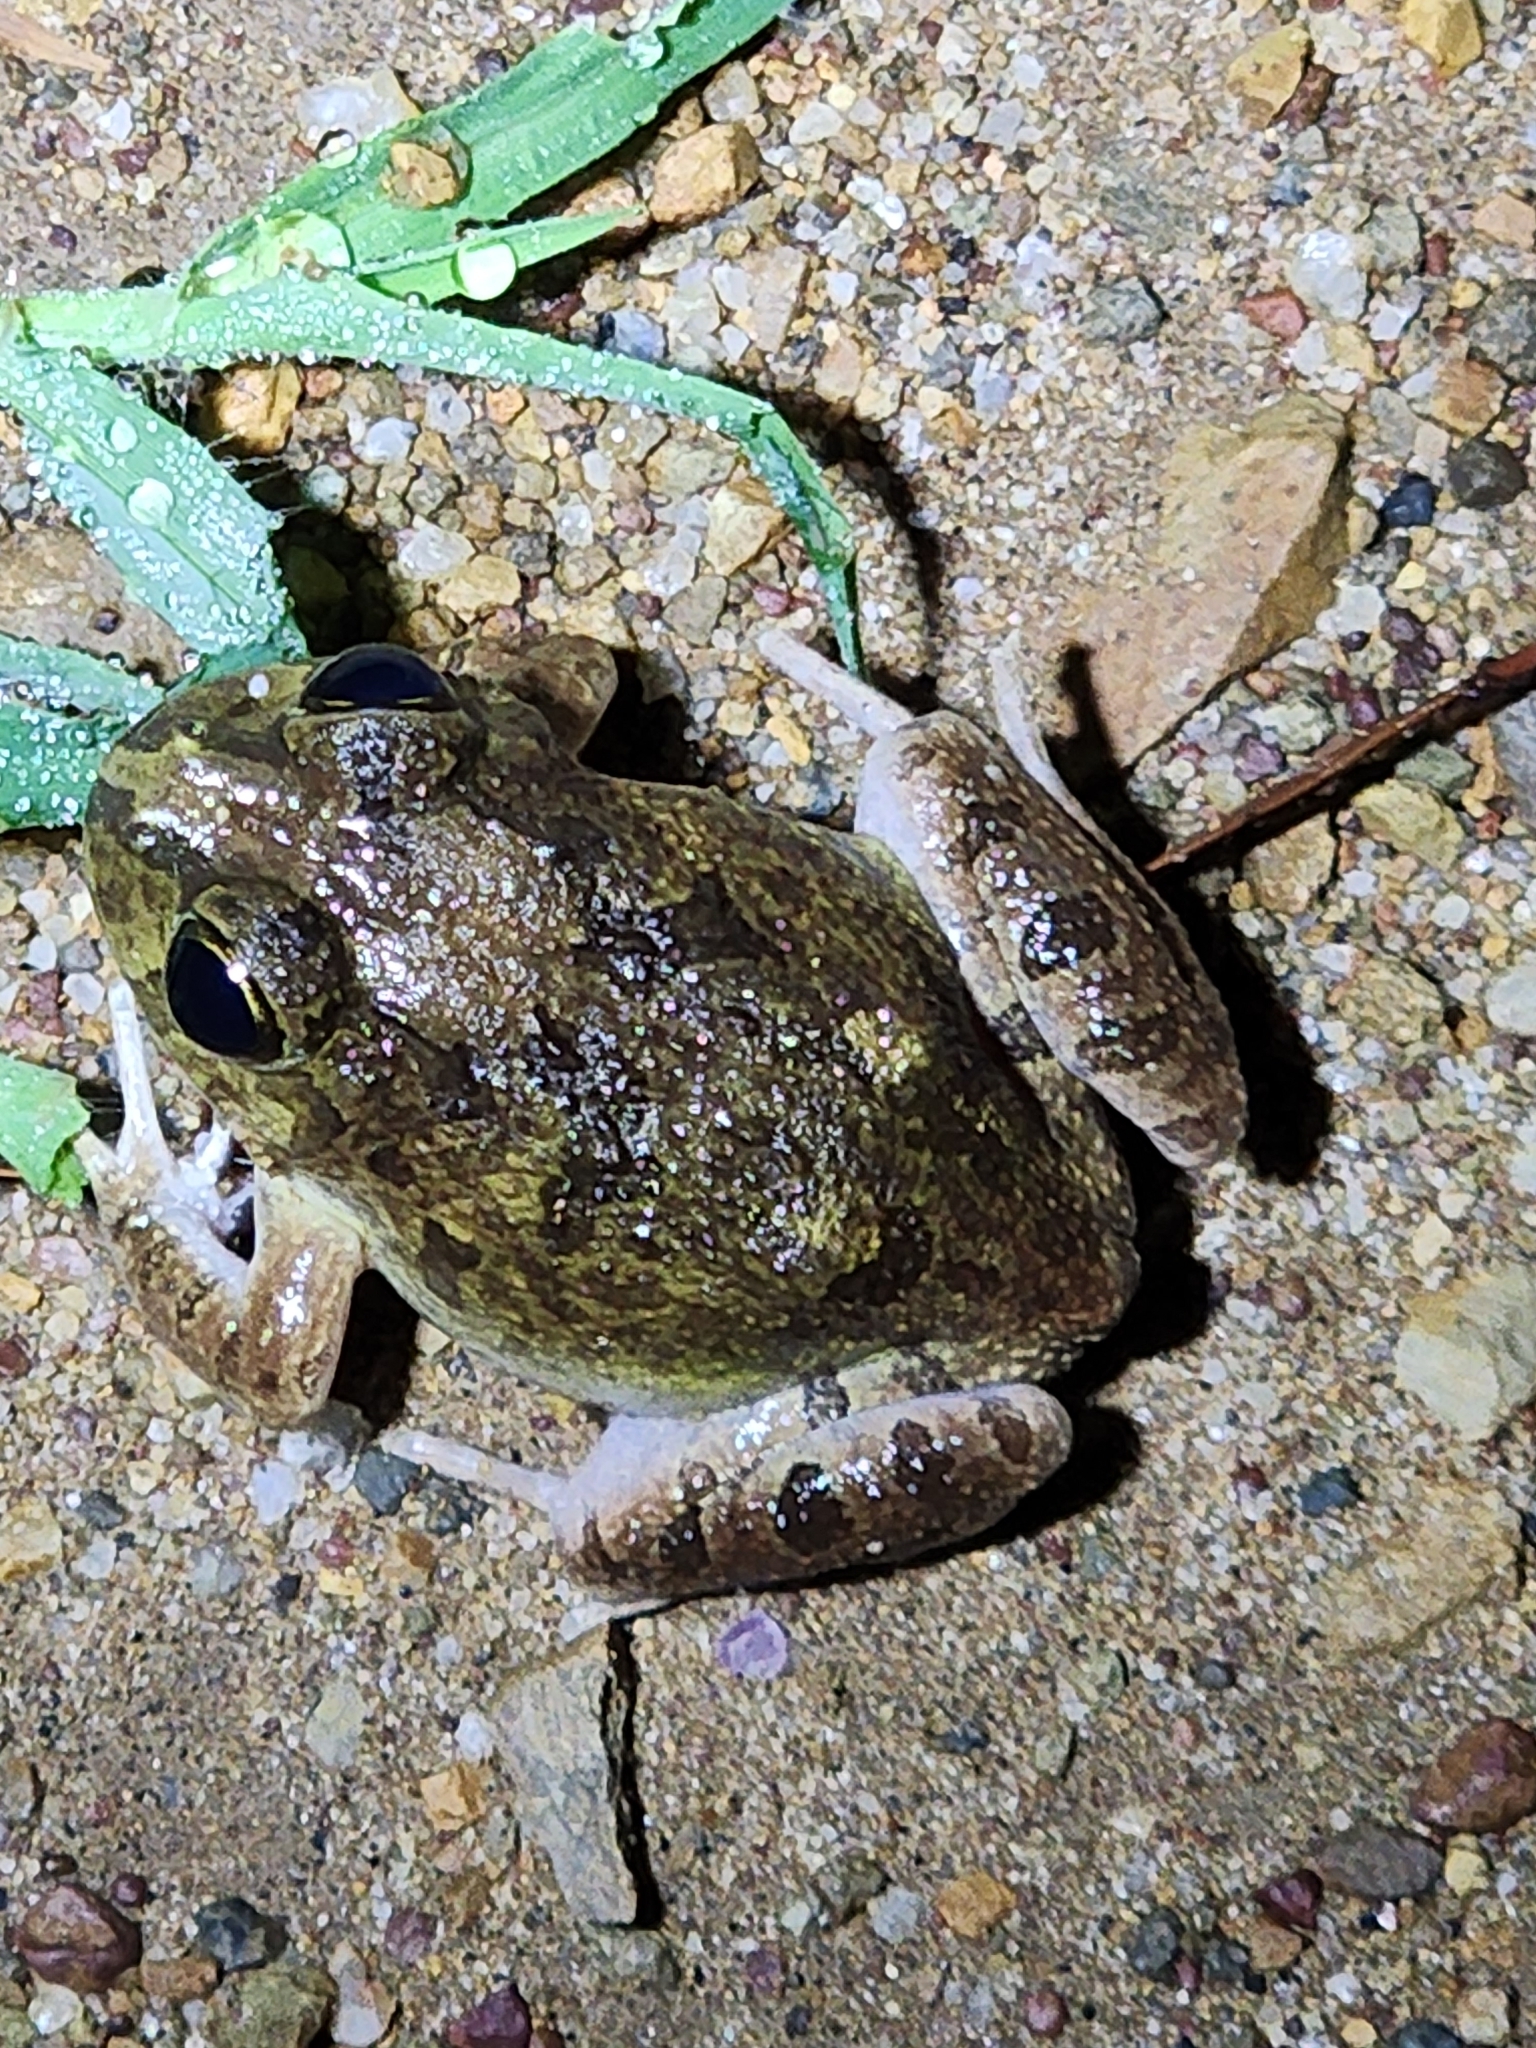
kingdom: Animalia
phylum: Chordata
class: Amphibia
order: Anura
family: Limnodynastidae
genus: Platyplectrum
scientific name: Platyplectrum ornatum
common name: Ornate burrowing frog
